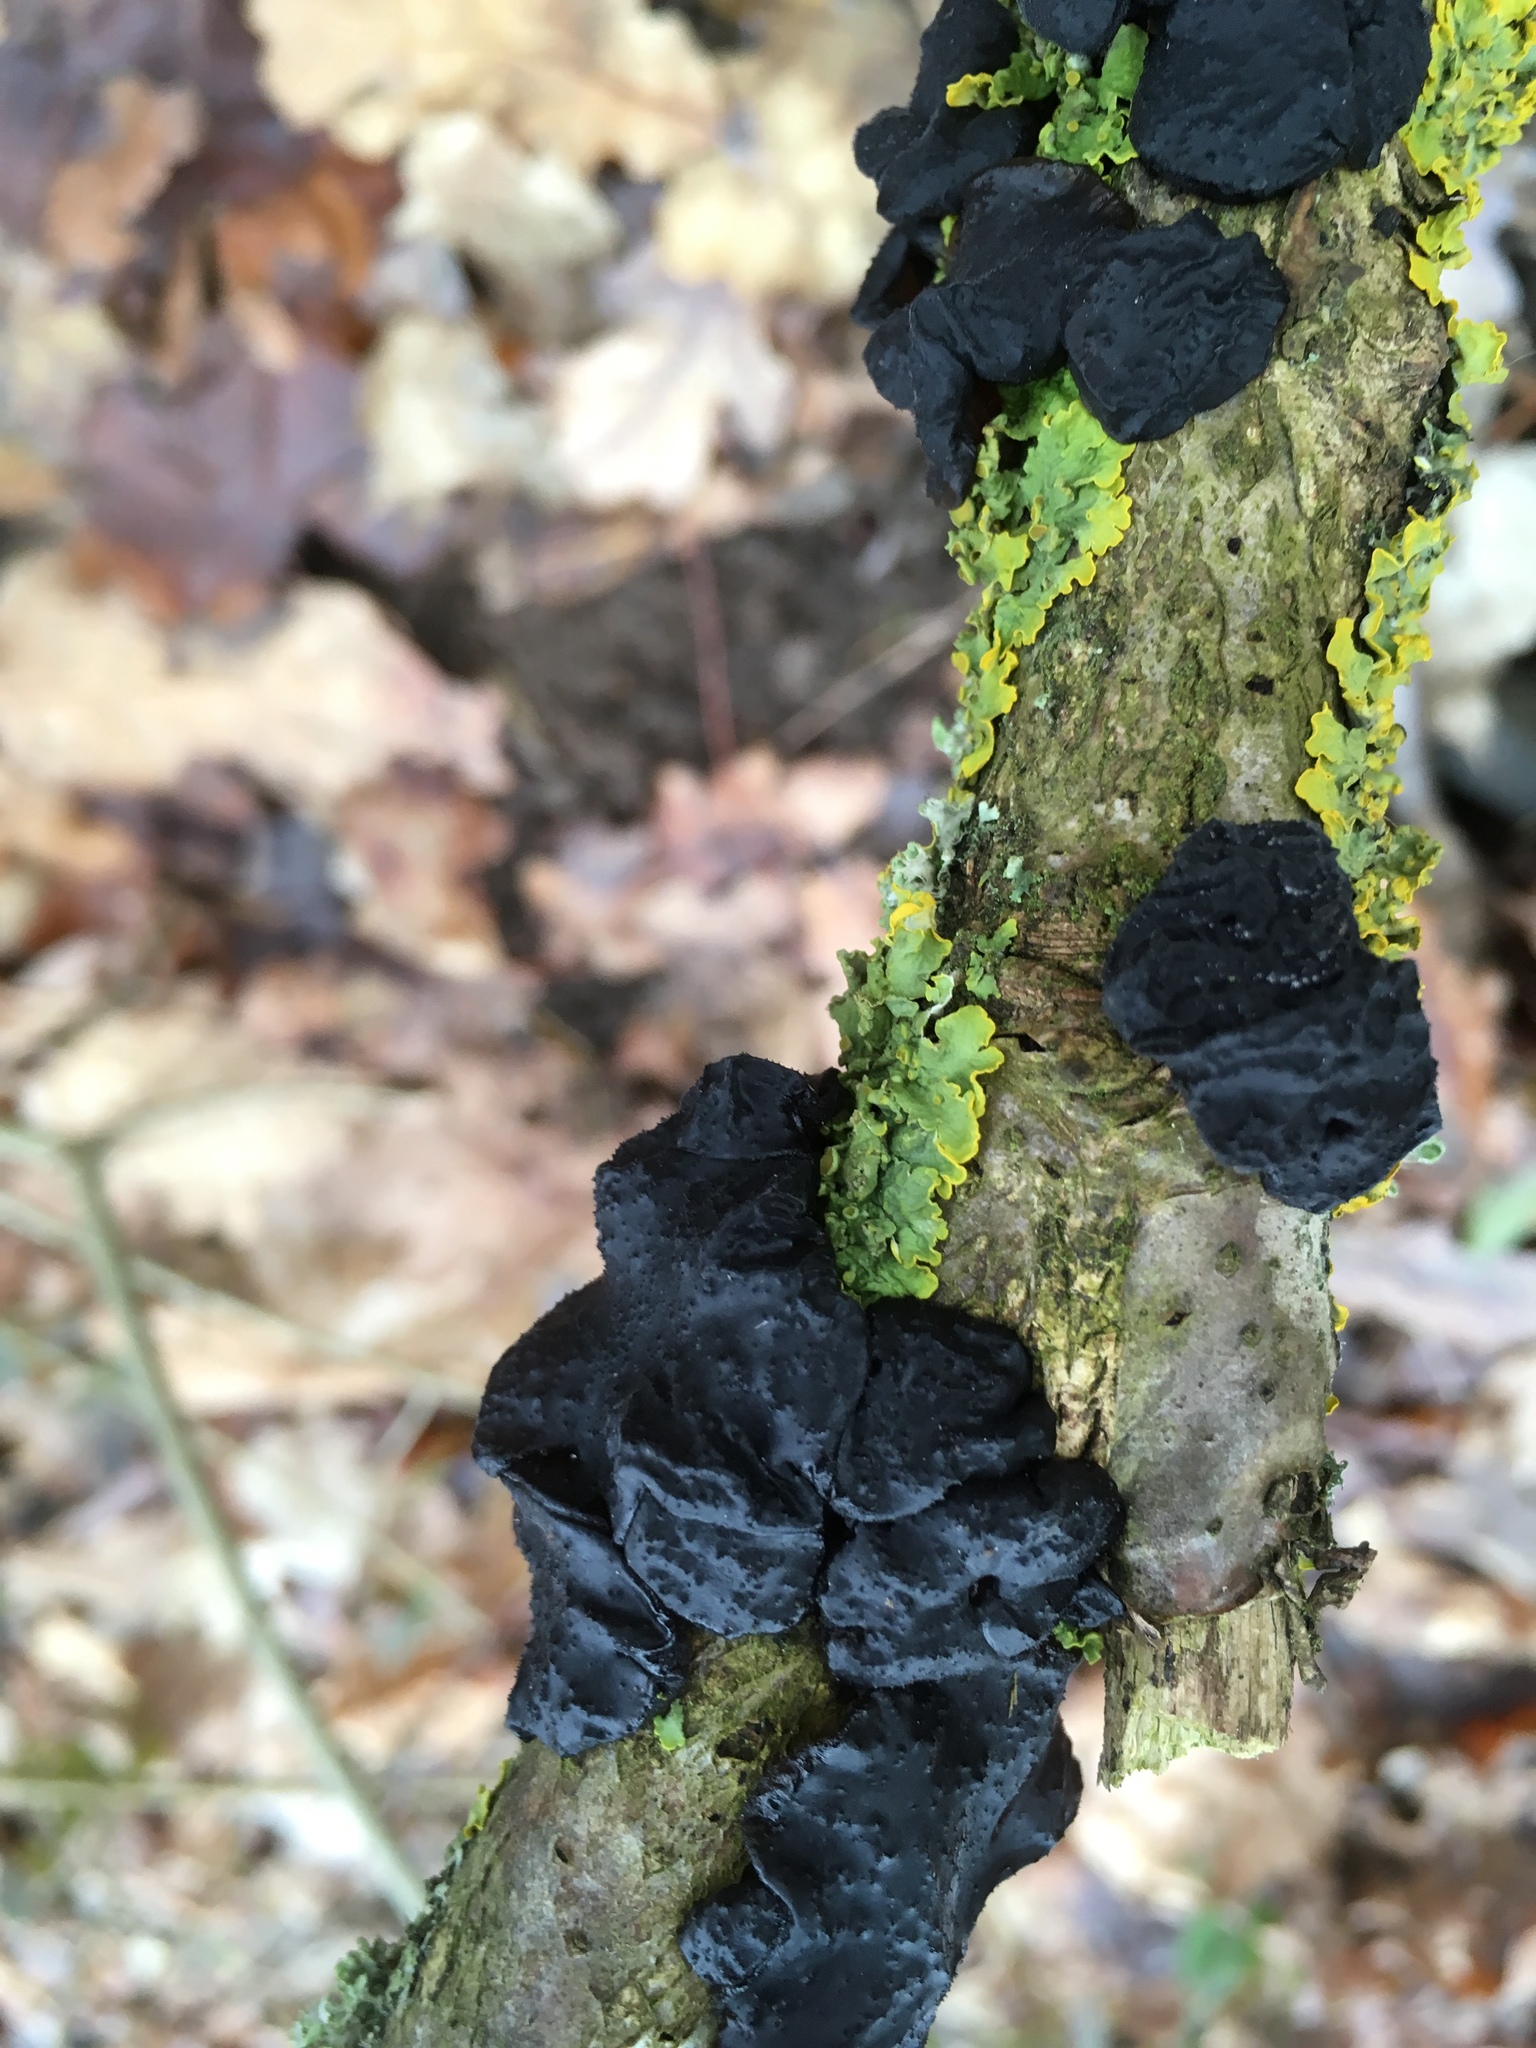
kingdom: Fungi
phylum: Basidiomycota
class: Agaricomycetes
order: Auriculariales
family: Auriculariaceae
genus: Exidia
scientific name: Exidia glandulosa
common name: Witches' butter
